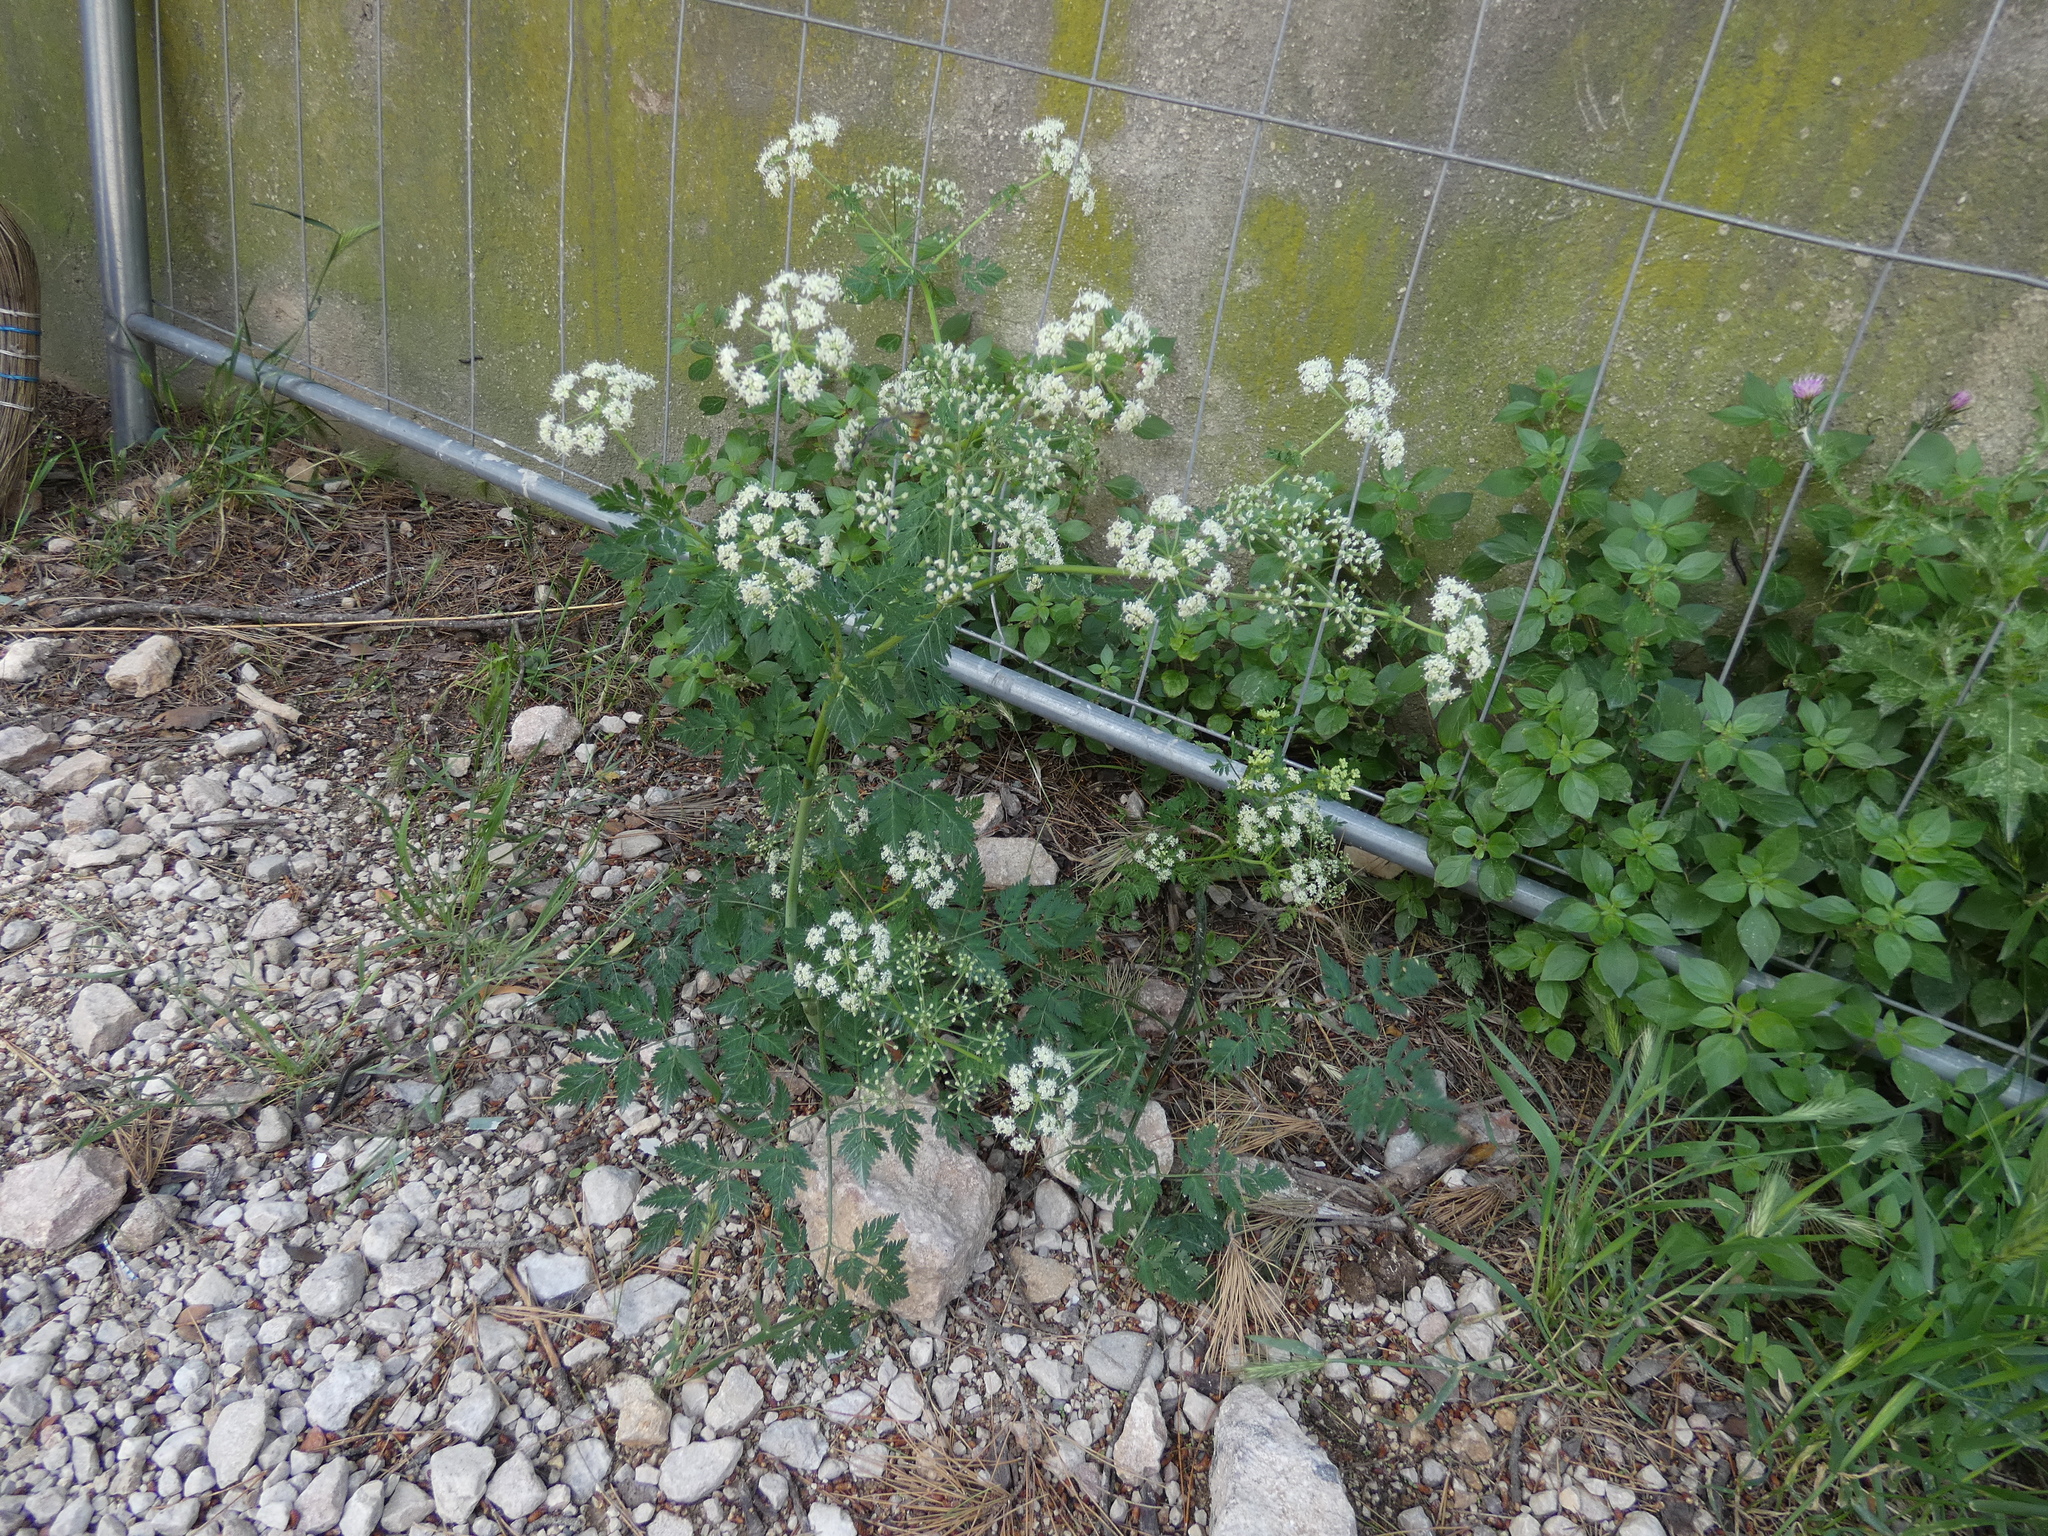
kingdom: Plantae
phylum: Tracheophyta
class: Magnoliopsida
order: Apiales
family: Apiaceae
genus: Conium
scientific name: Conium maculatum
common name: Hemlock
